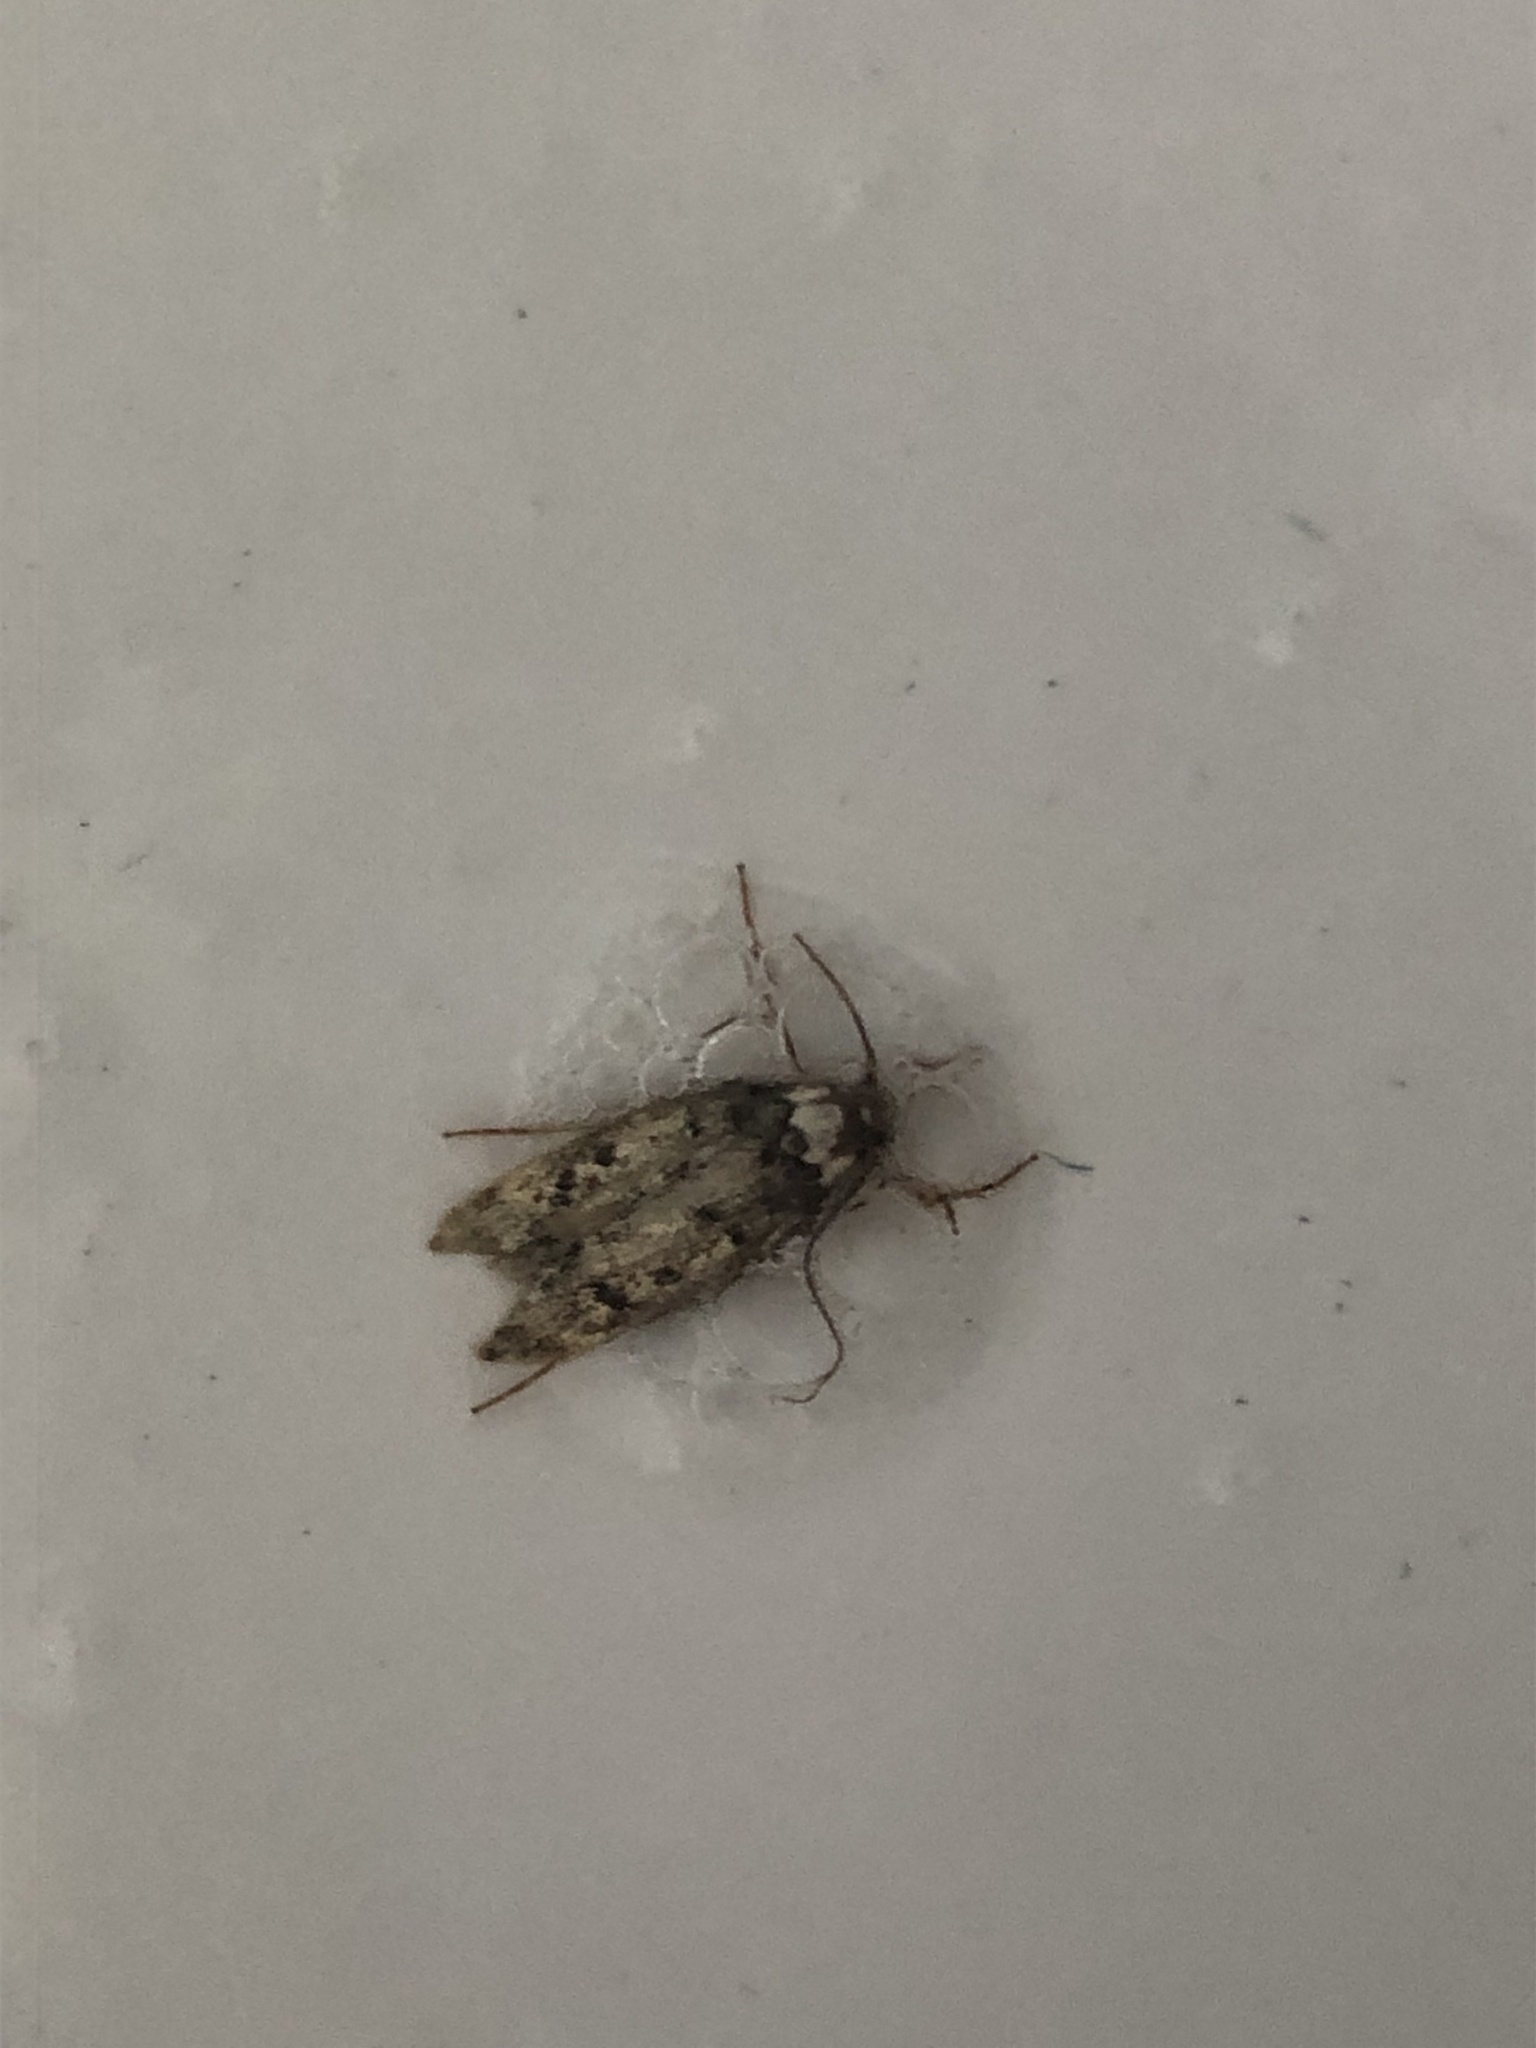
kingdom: Animalia
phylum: Arthropoda
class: Insecta
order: Lepidoptera
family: Oecophoridae
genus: Endrosis
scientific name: Endrosis sarcitrella
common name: White-shouldered house moth
